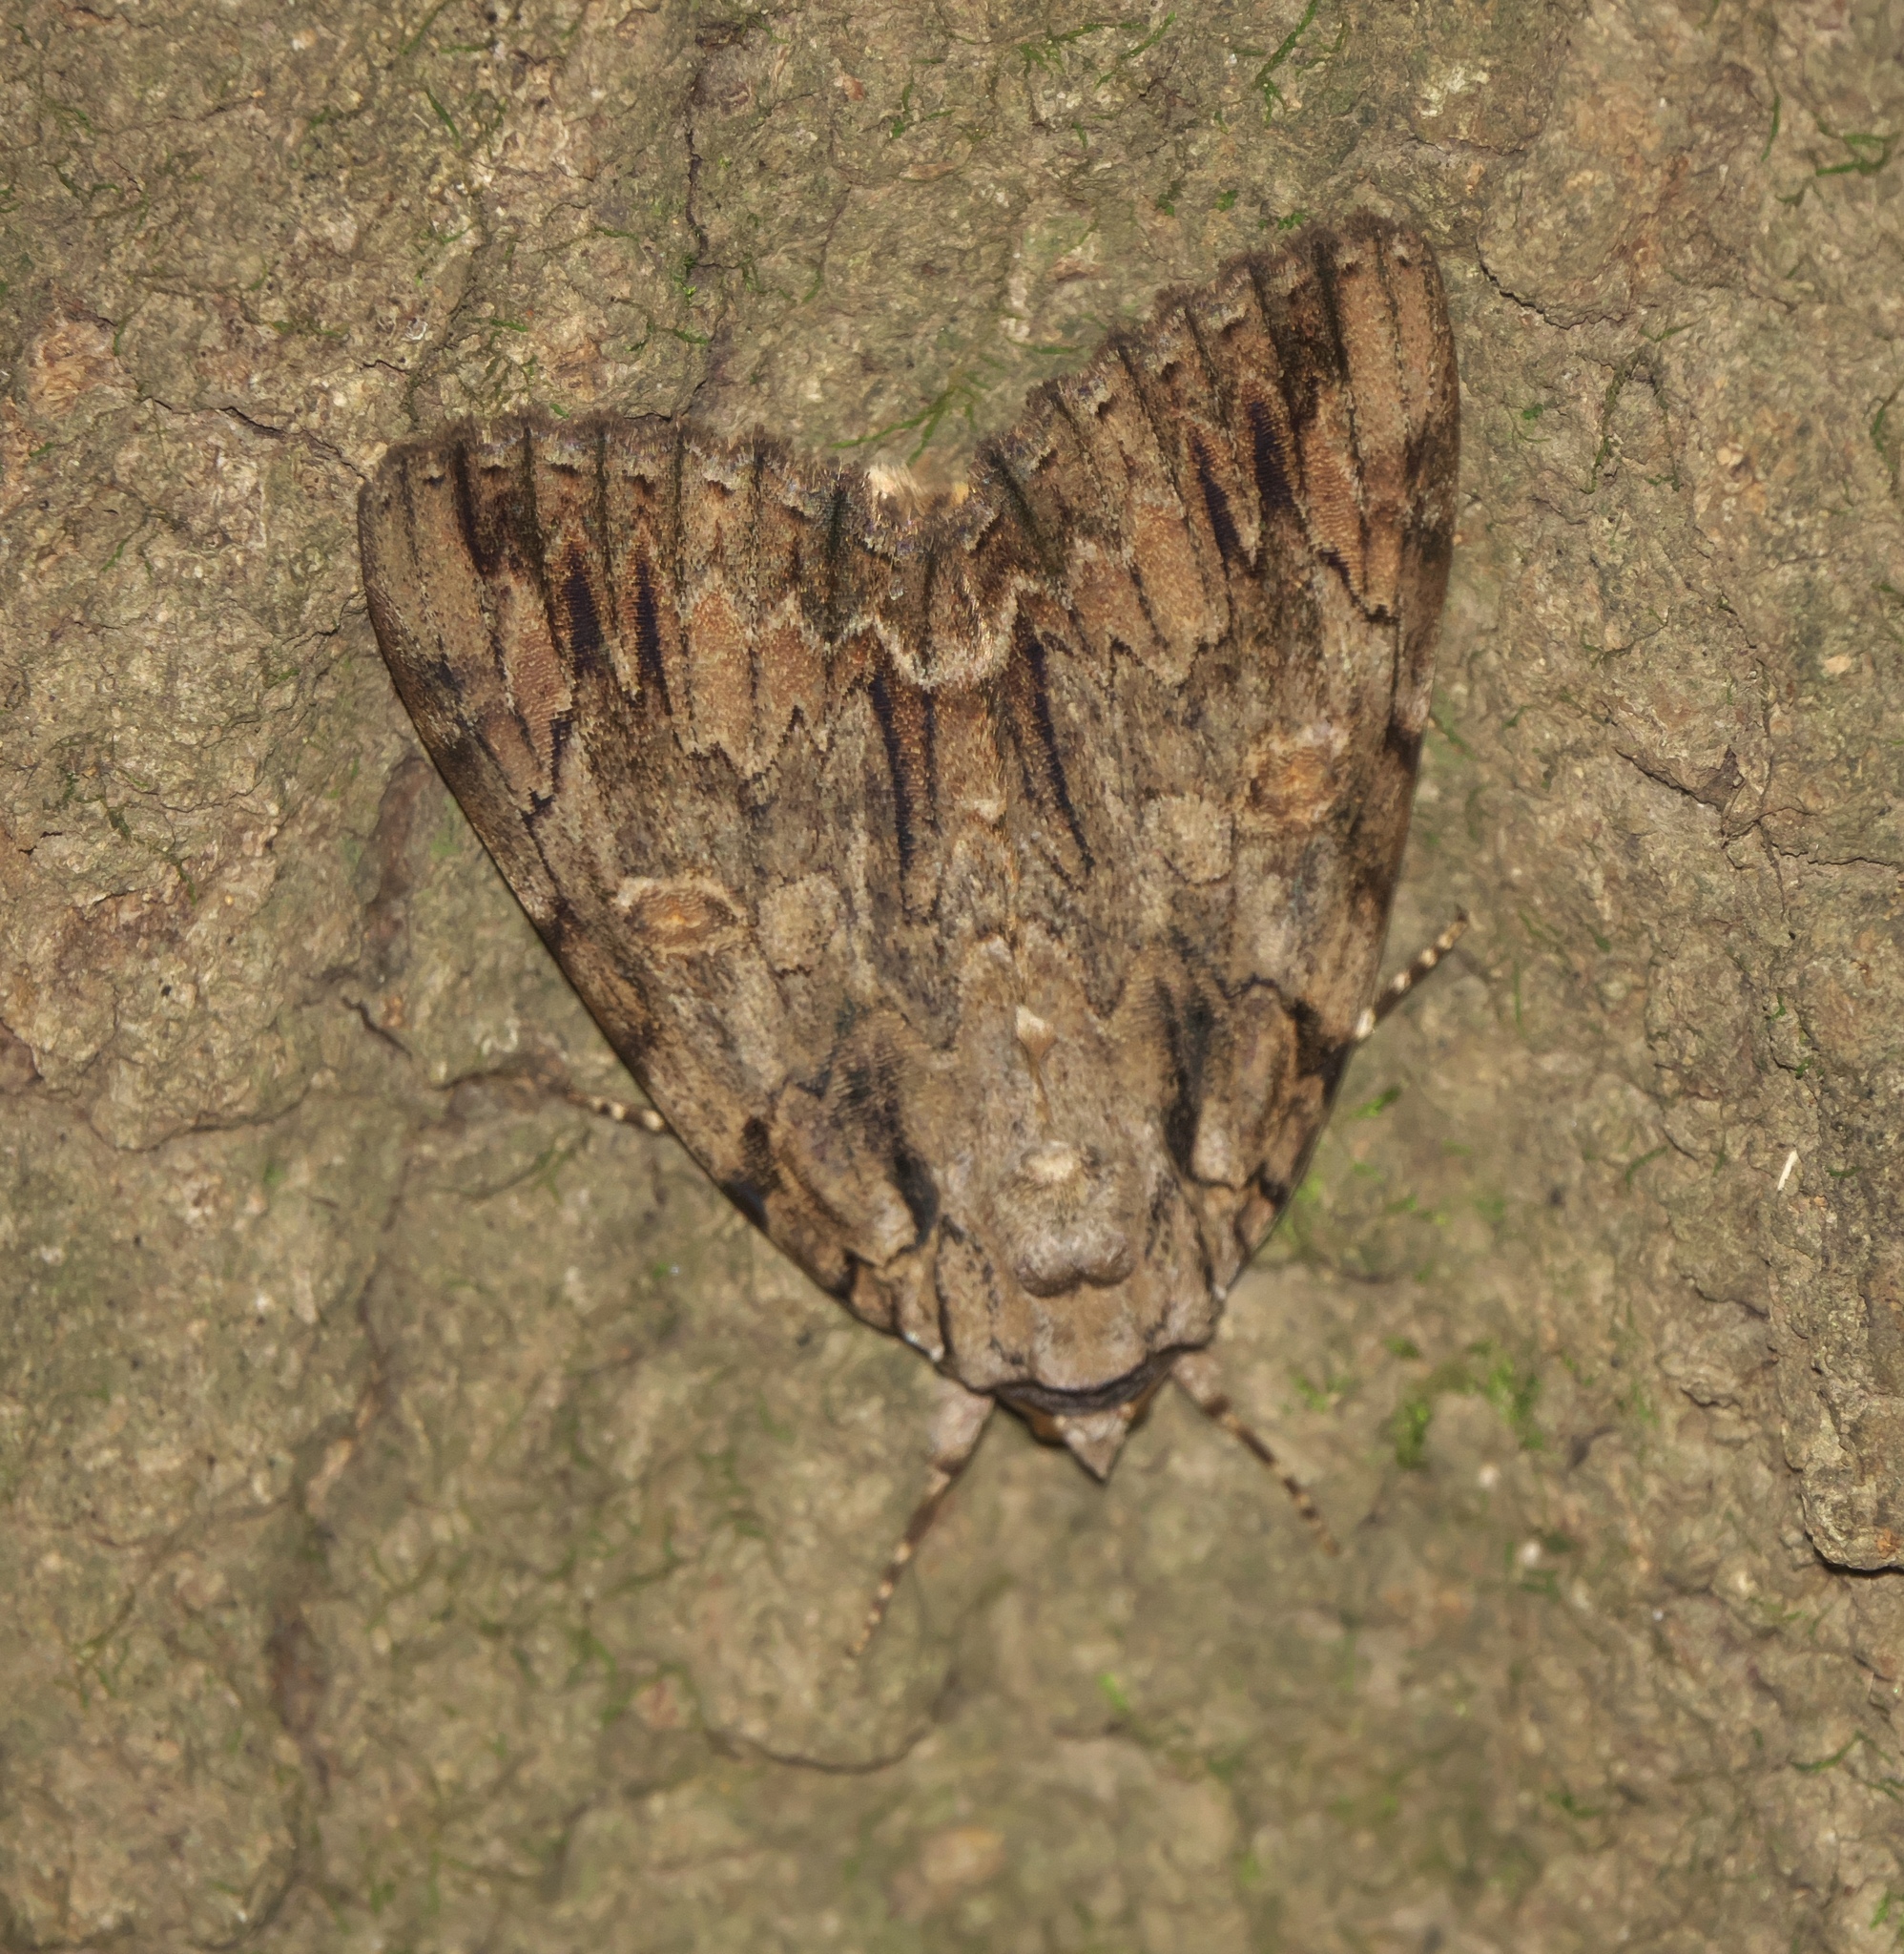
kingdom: Animalia
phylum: Arthropoda
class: Insecta
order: Lepidoptera
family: Erebidae
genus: Catocala
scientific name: Catocala neogama
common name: Bride underwing
